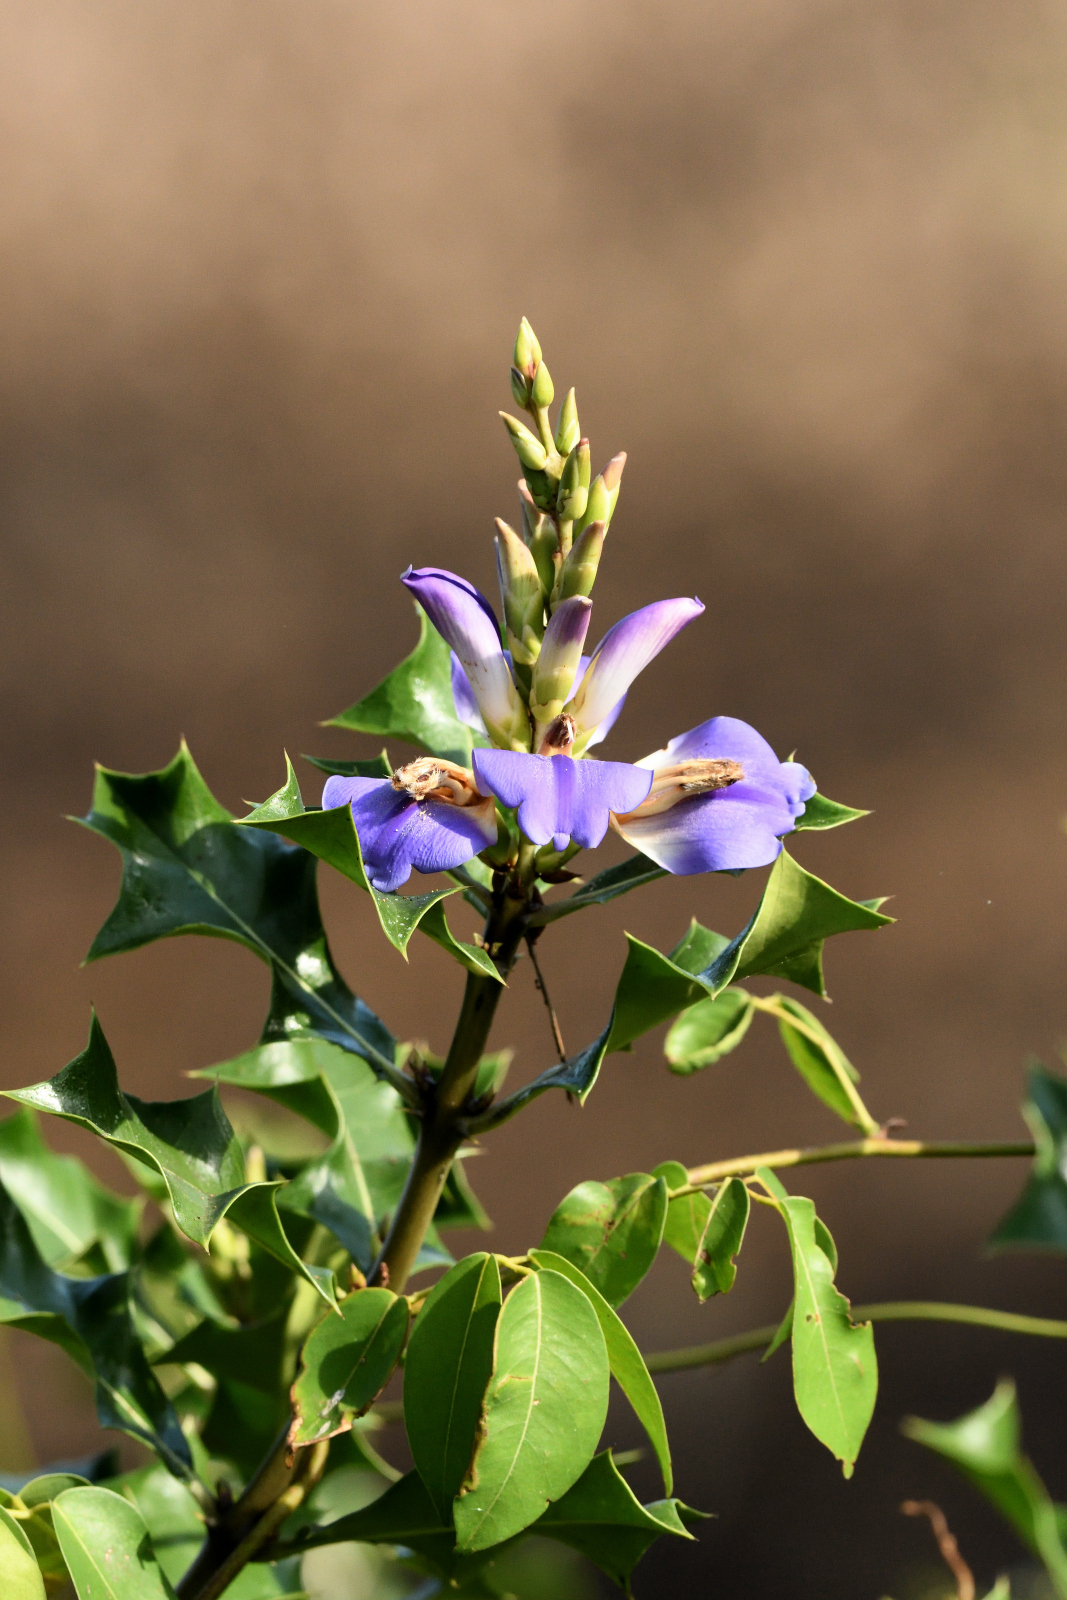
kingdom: Plantae
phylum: Tracheophyta
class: Magnoliopsida
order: Lamiales
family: Acanthaceae
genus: Acanthus
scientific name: Acanthus ilicifolius
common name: Holy mangrove
